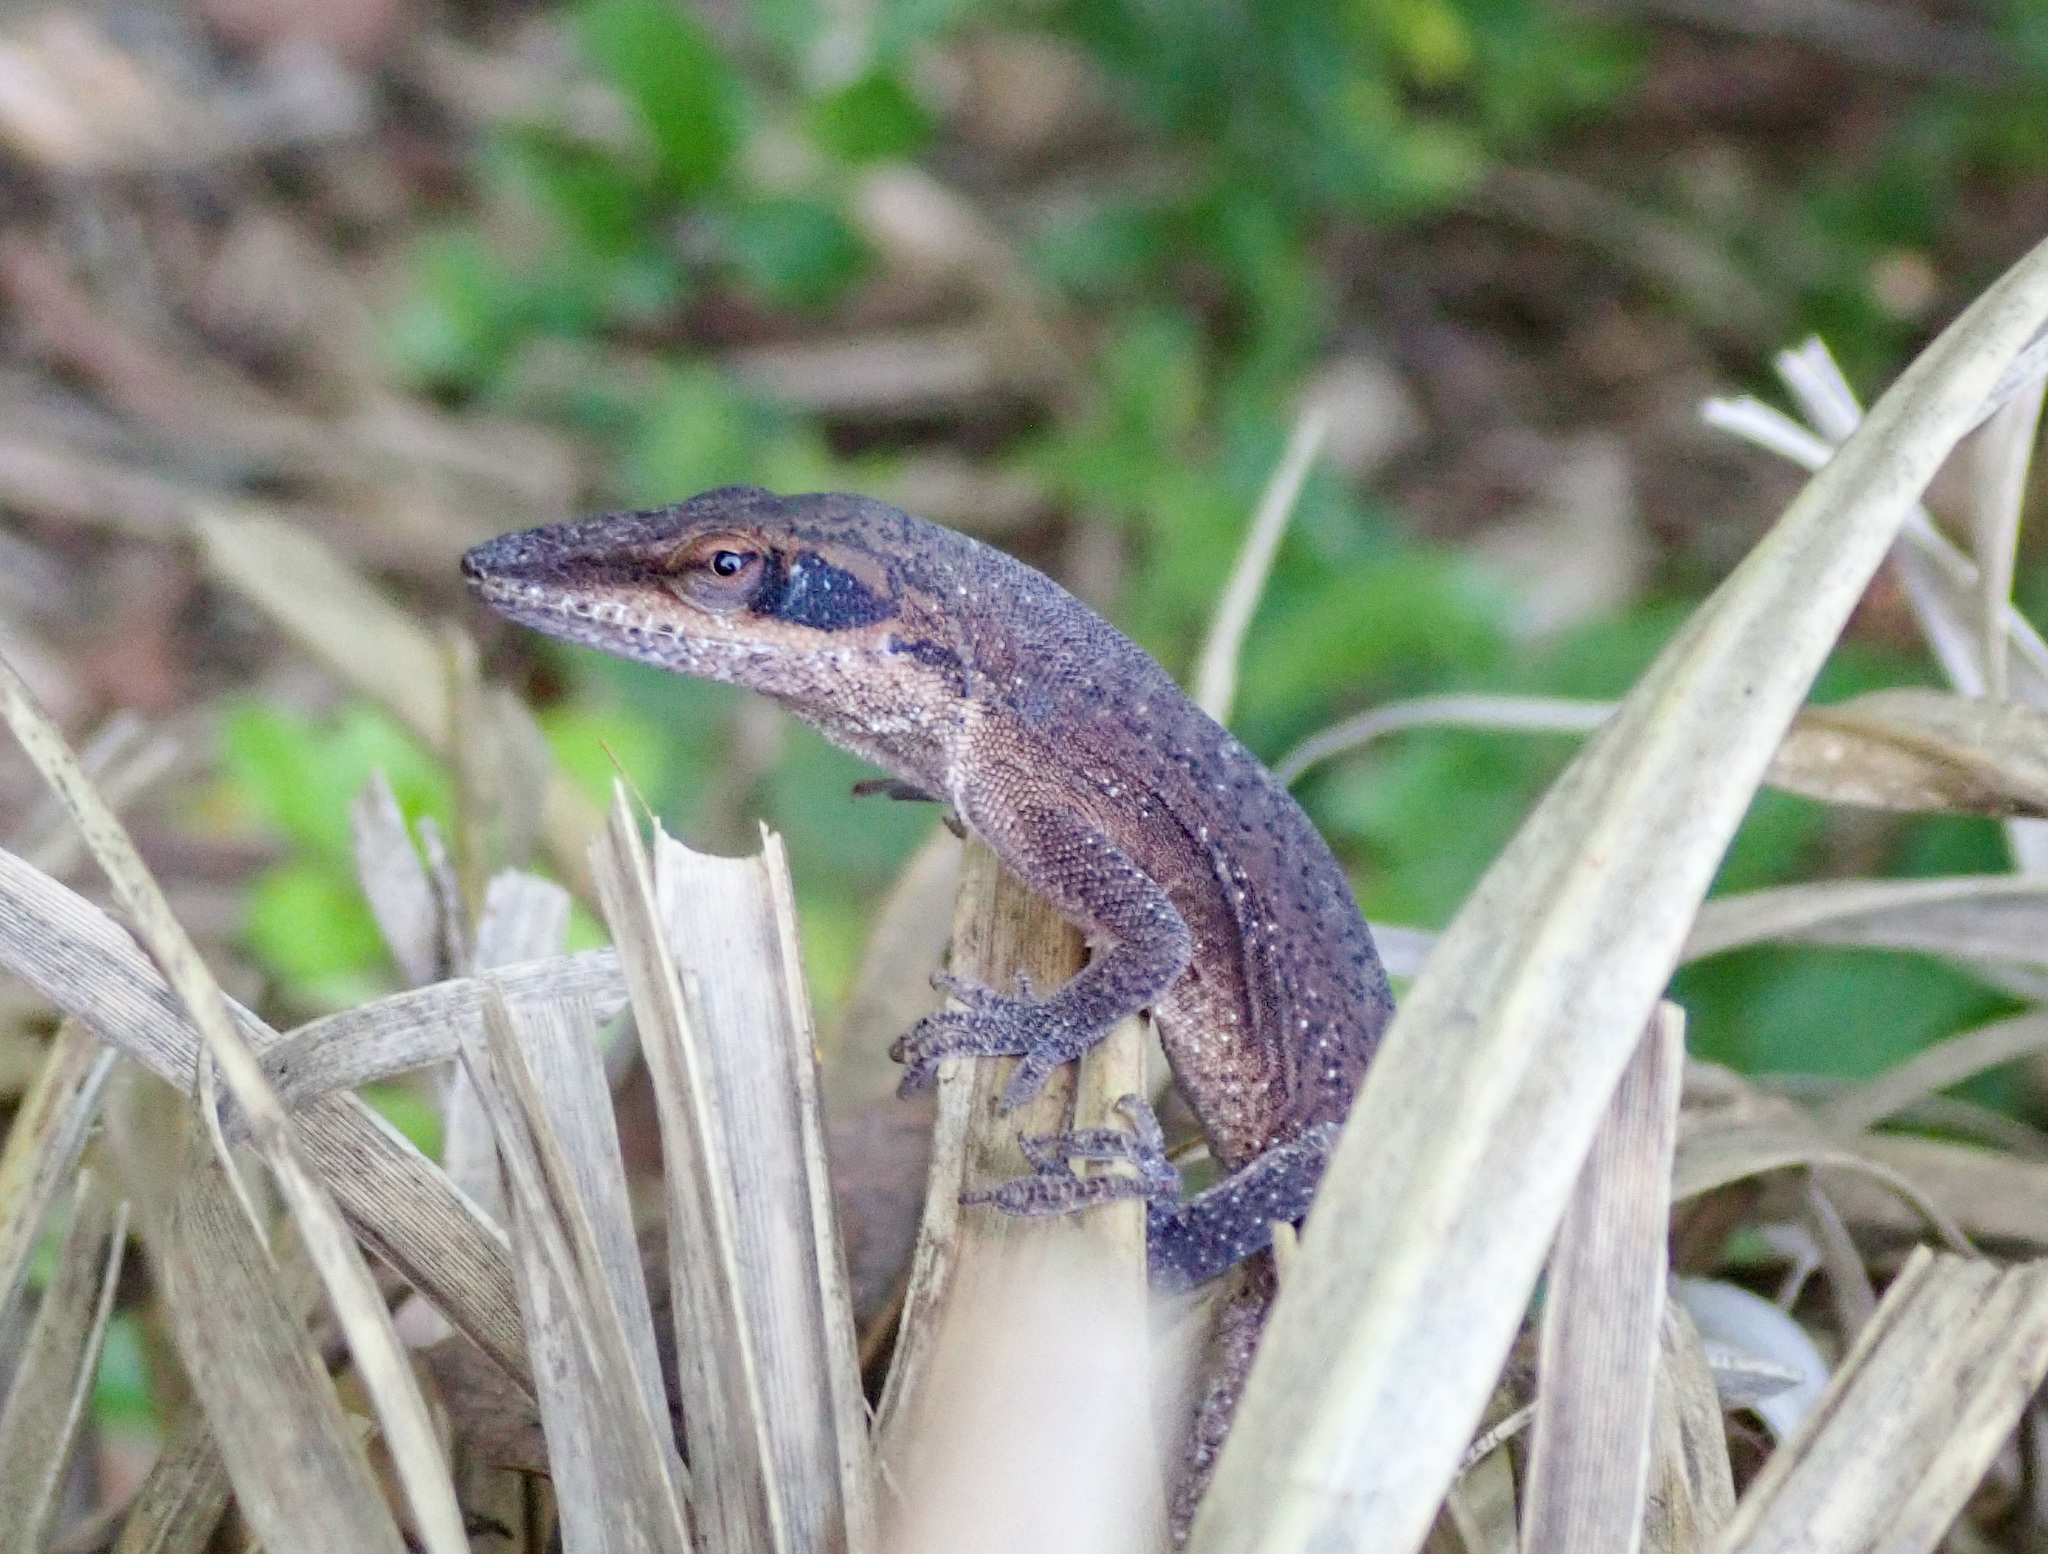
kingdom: Animalia
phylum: Chordata
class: Squamata
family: Dactyloidae
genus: Anolis
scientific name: Anolis carolinensis
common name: Green anole
